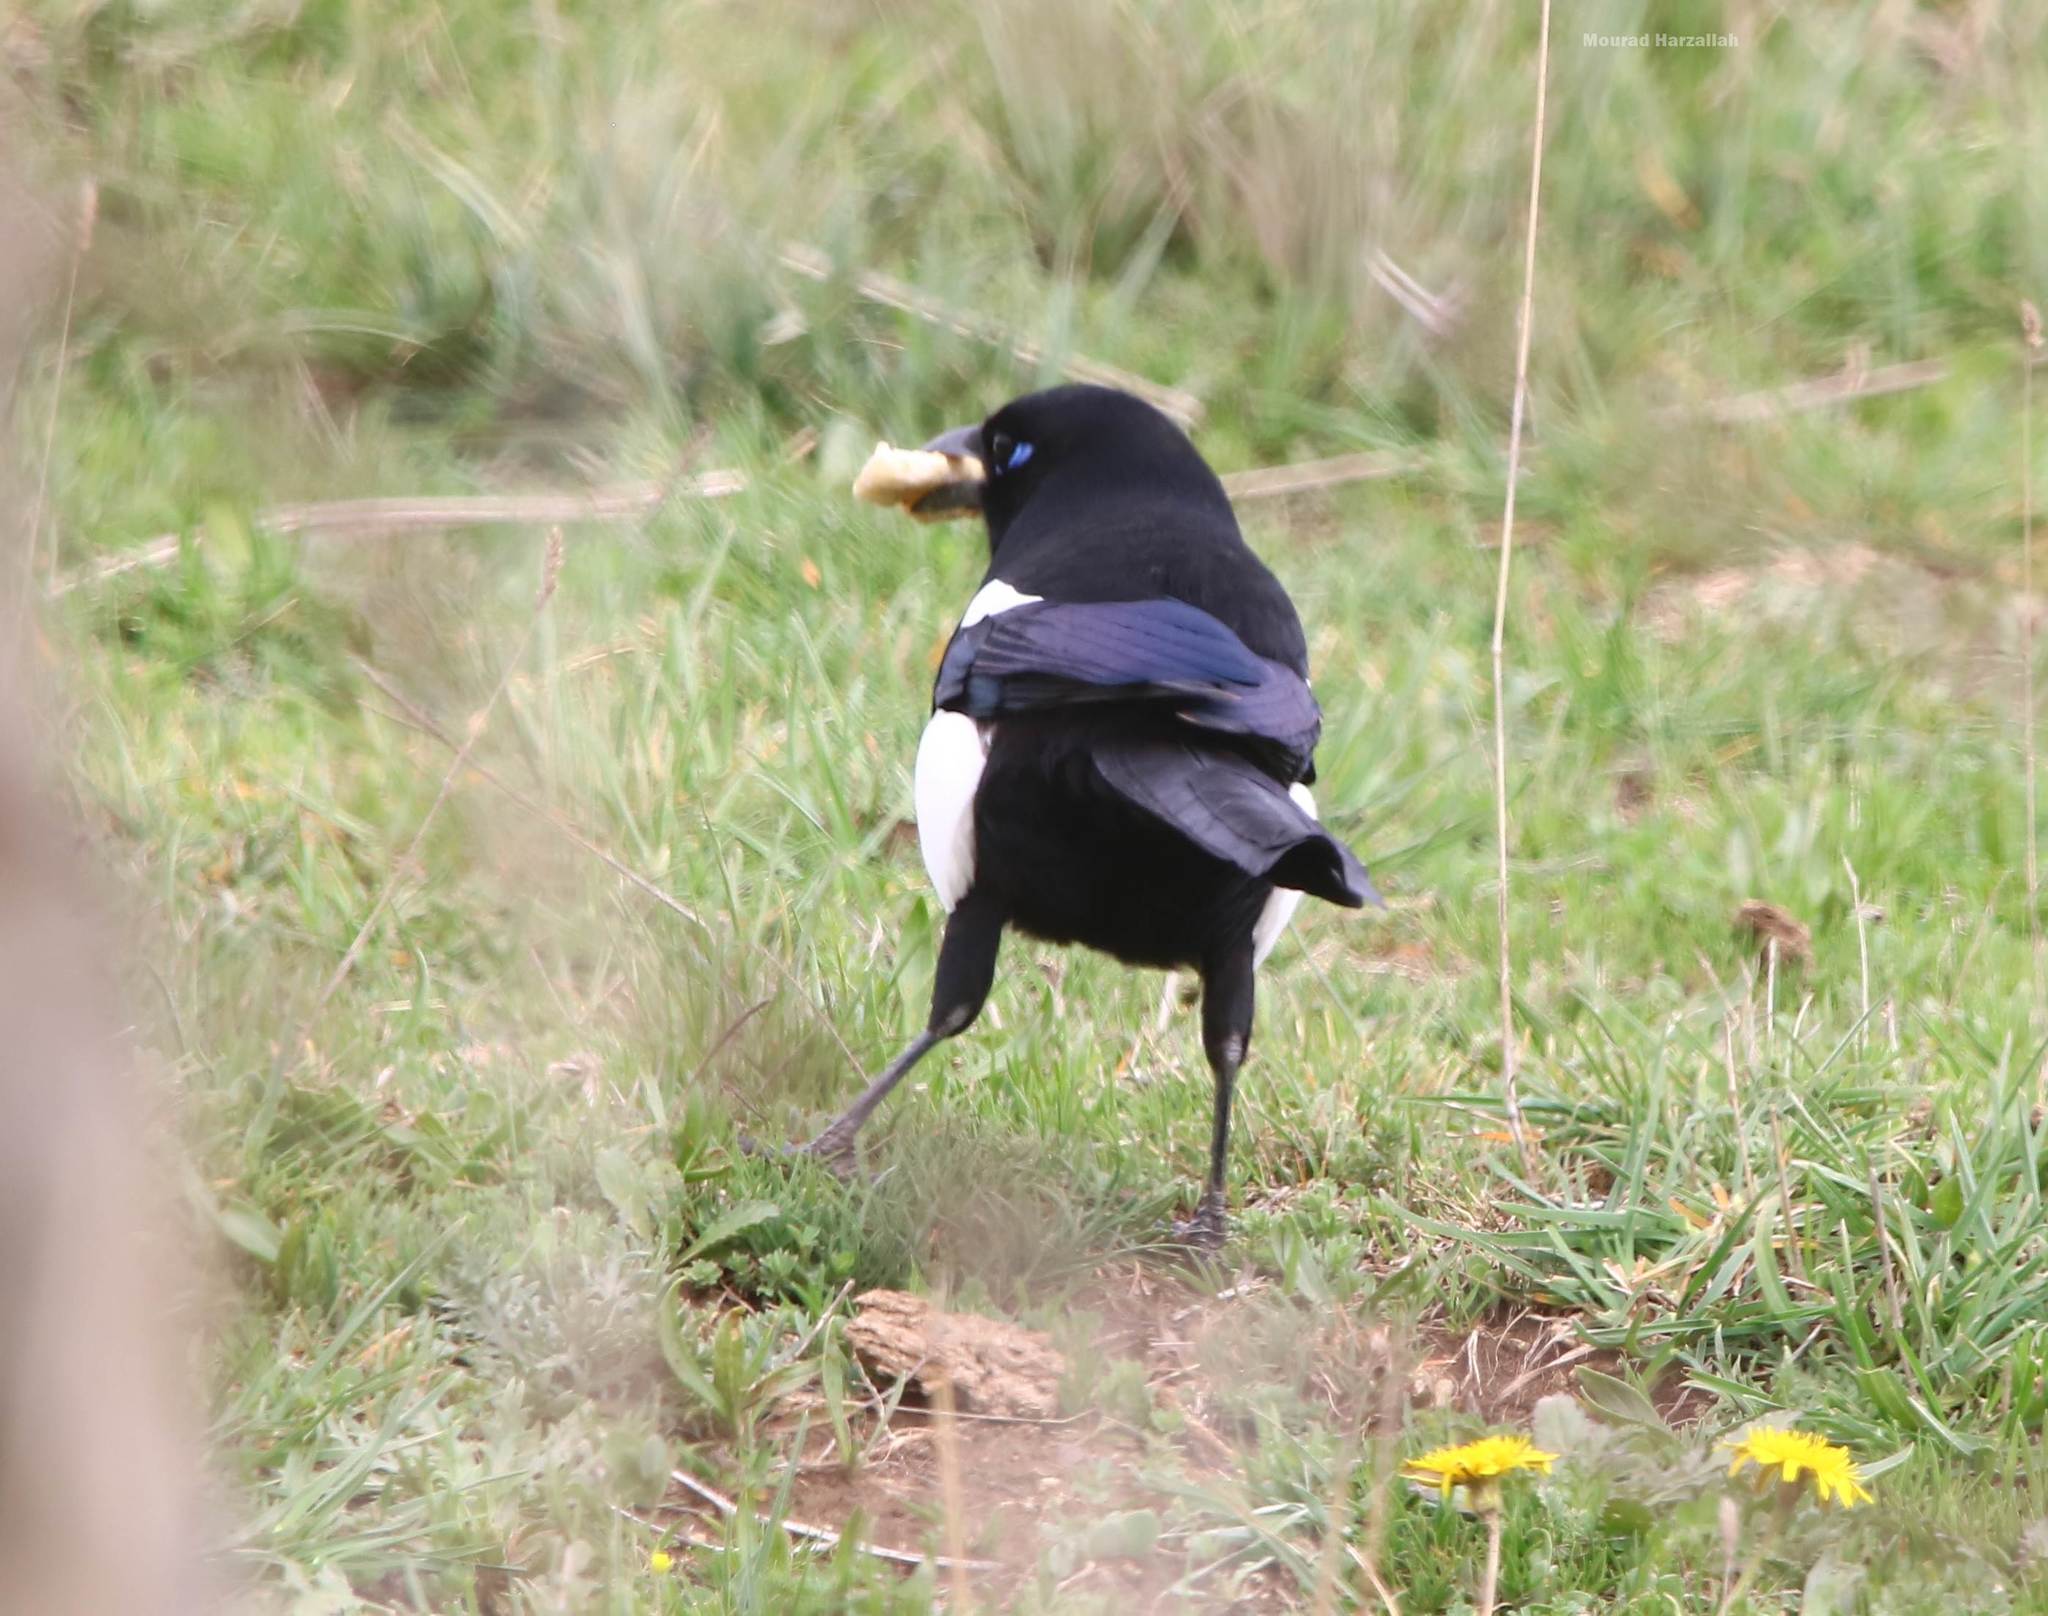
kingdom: Animalia
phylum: Chordata
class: Aves
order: Passeriformes
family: Corvidae
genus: Pica
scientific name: Pica mauritanica
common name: Maghreb magpie
